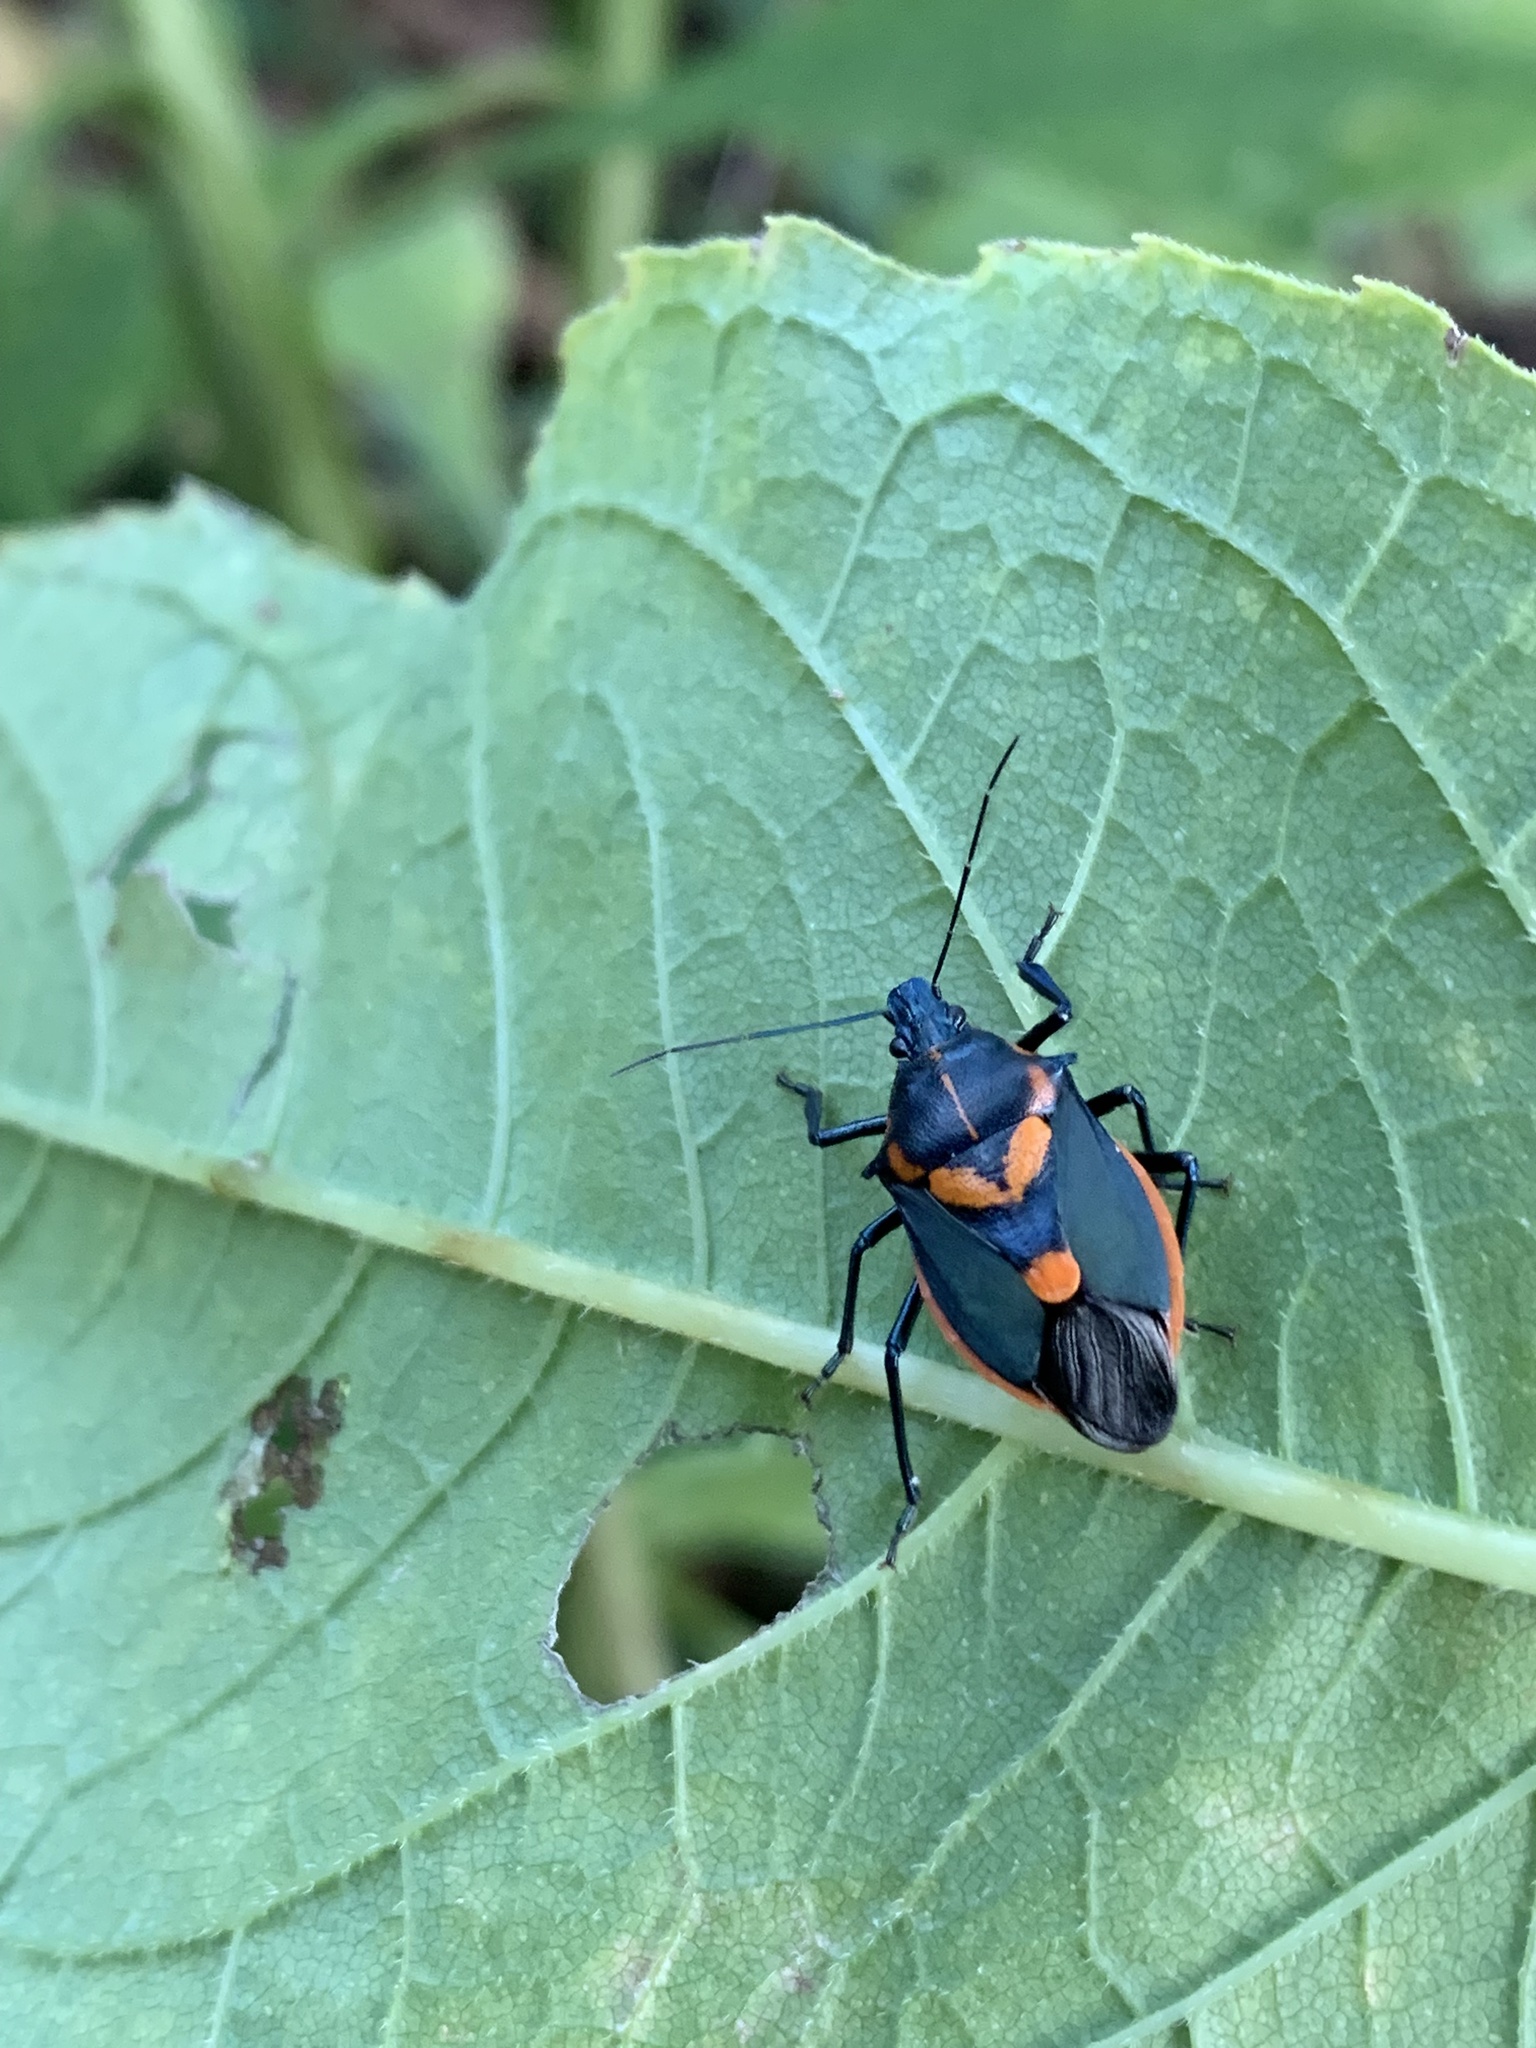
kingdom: Animalia
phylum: Arthropoda
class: Insecta
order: Hemiptera
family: Pentatomidae
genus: Euthyrhynchus
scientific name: Euthyrhynchus floridanus
